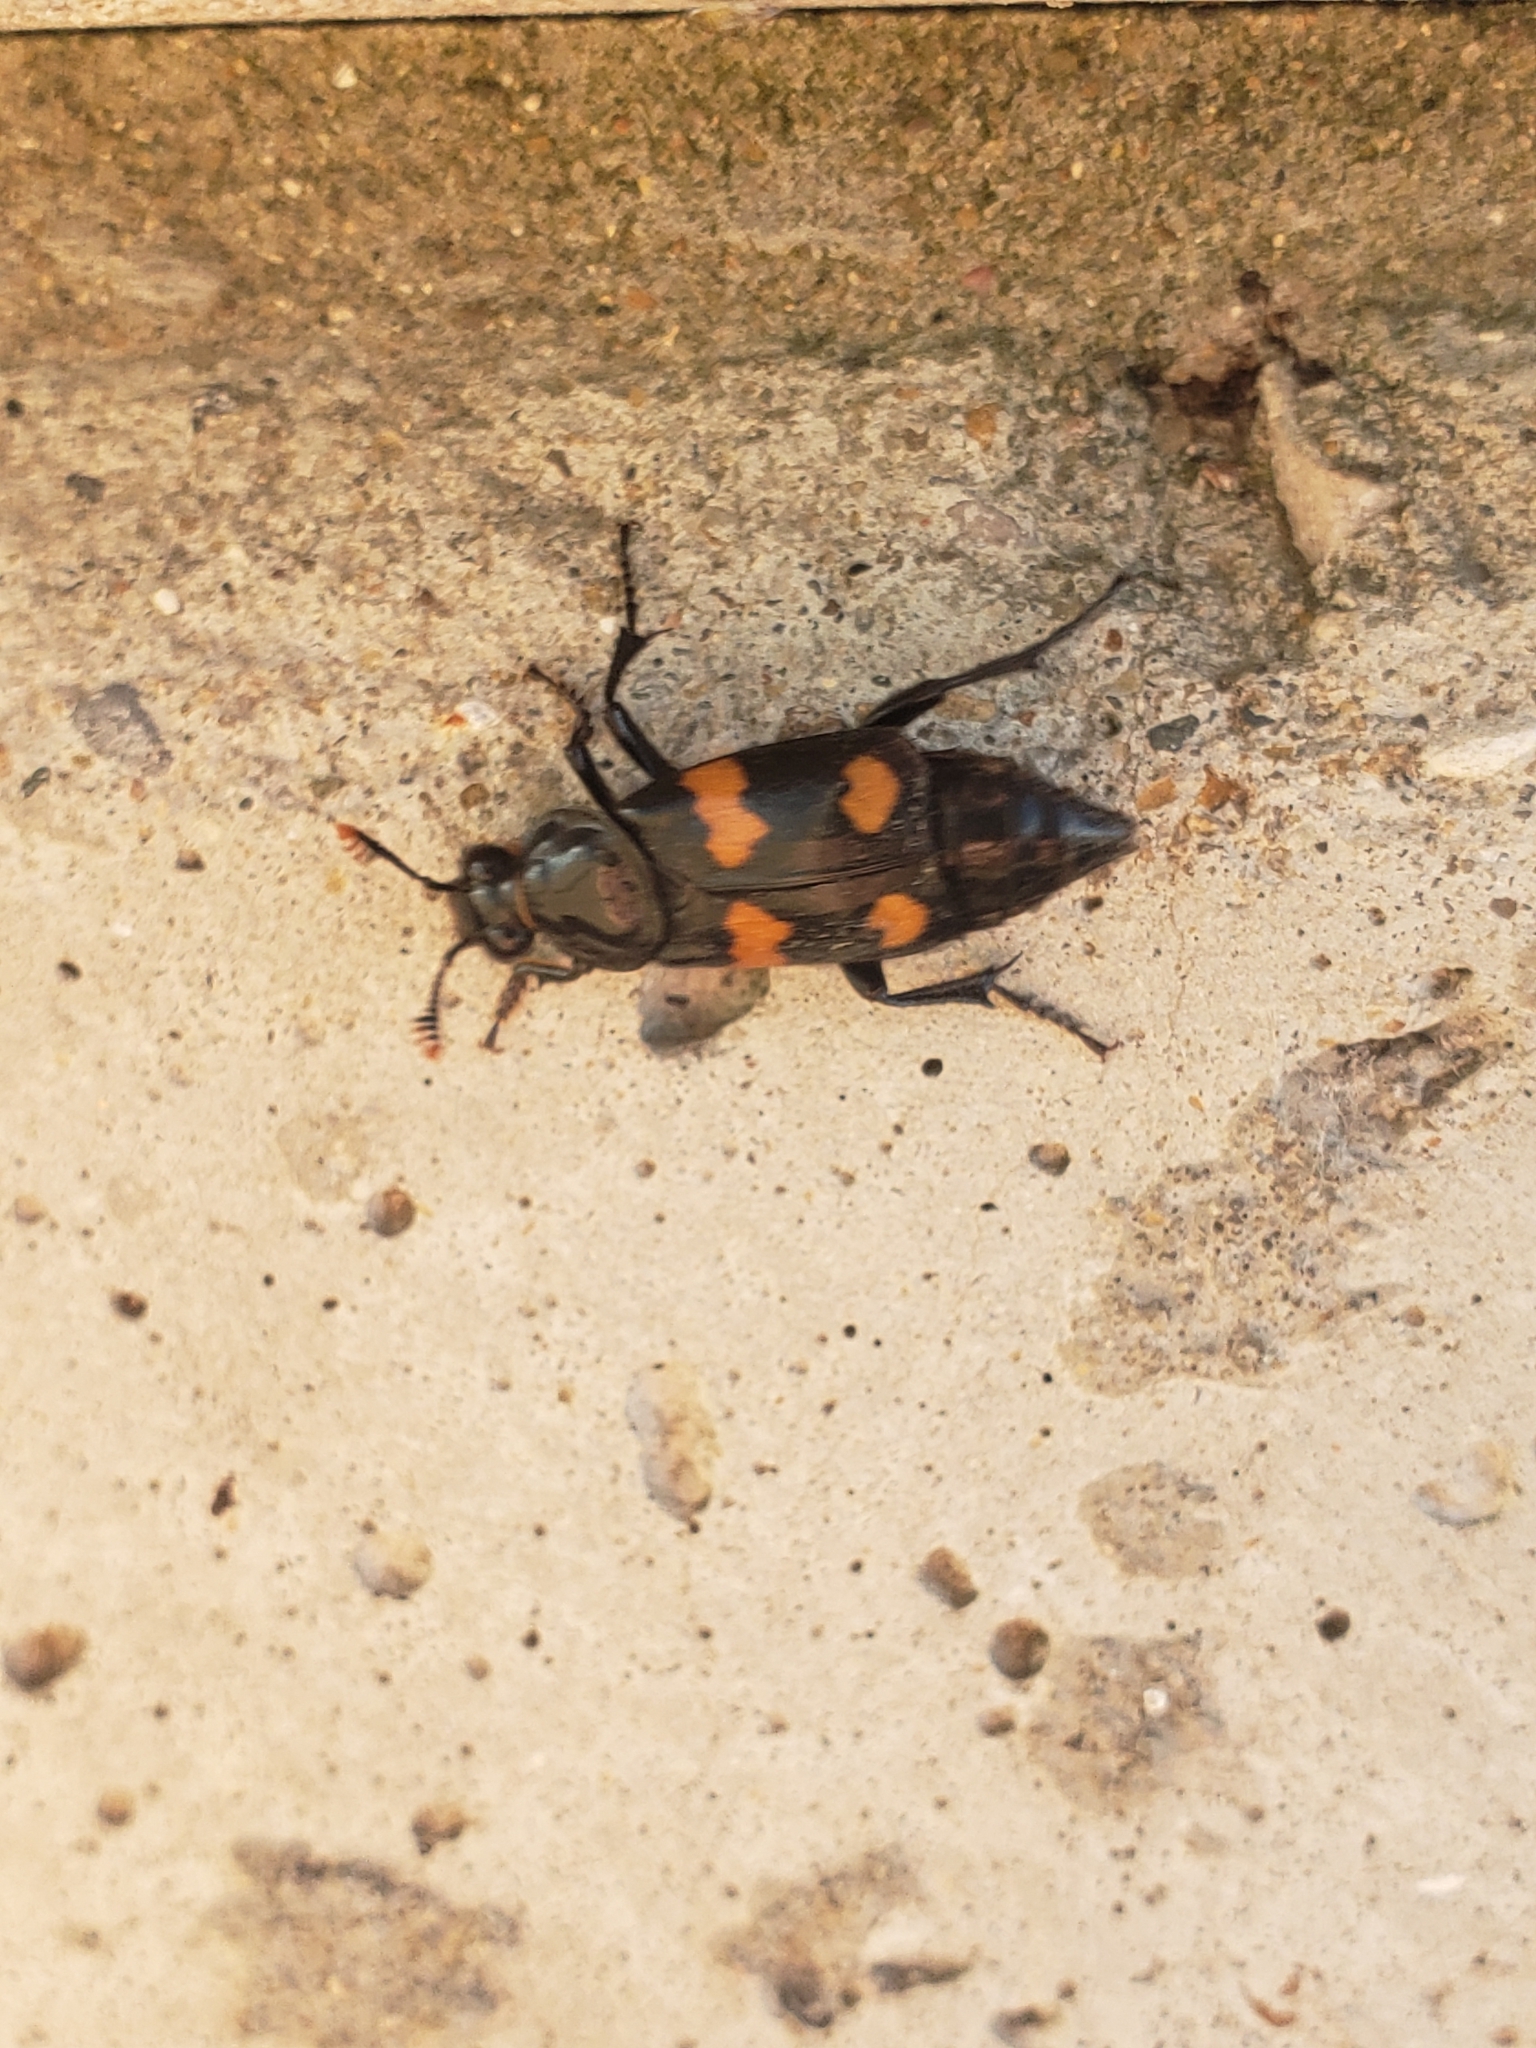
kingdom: Animalia
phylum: Arthropoda
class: Insecta
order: Coleoptera
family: Staphylinidae
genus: Nicrophorus
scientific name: Nicrophorus orbicollis
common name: Roundneck sexton beetle
